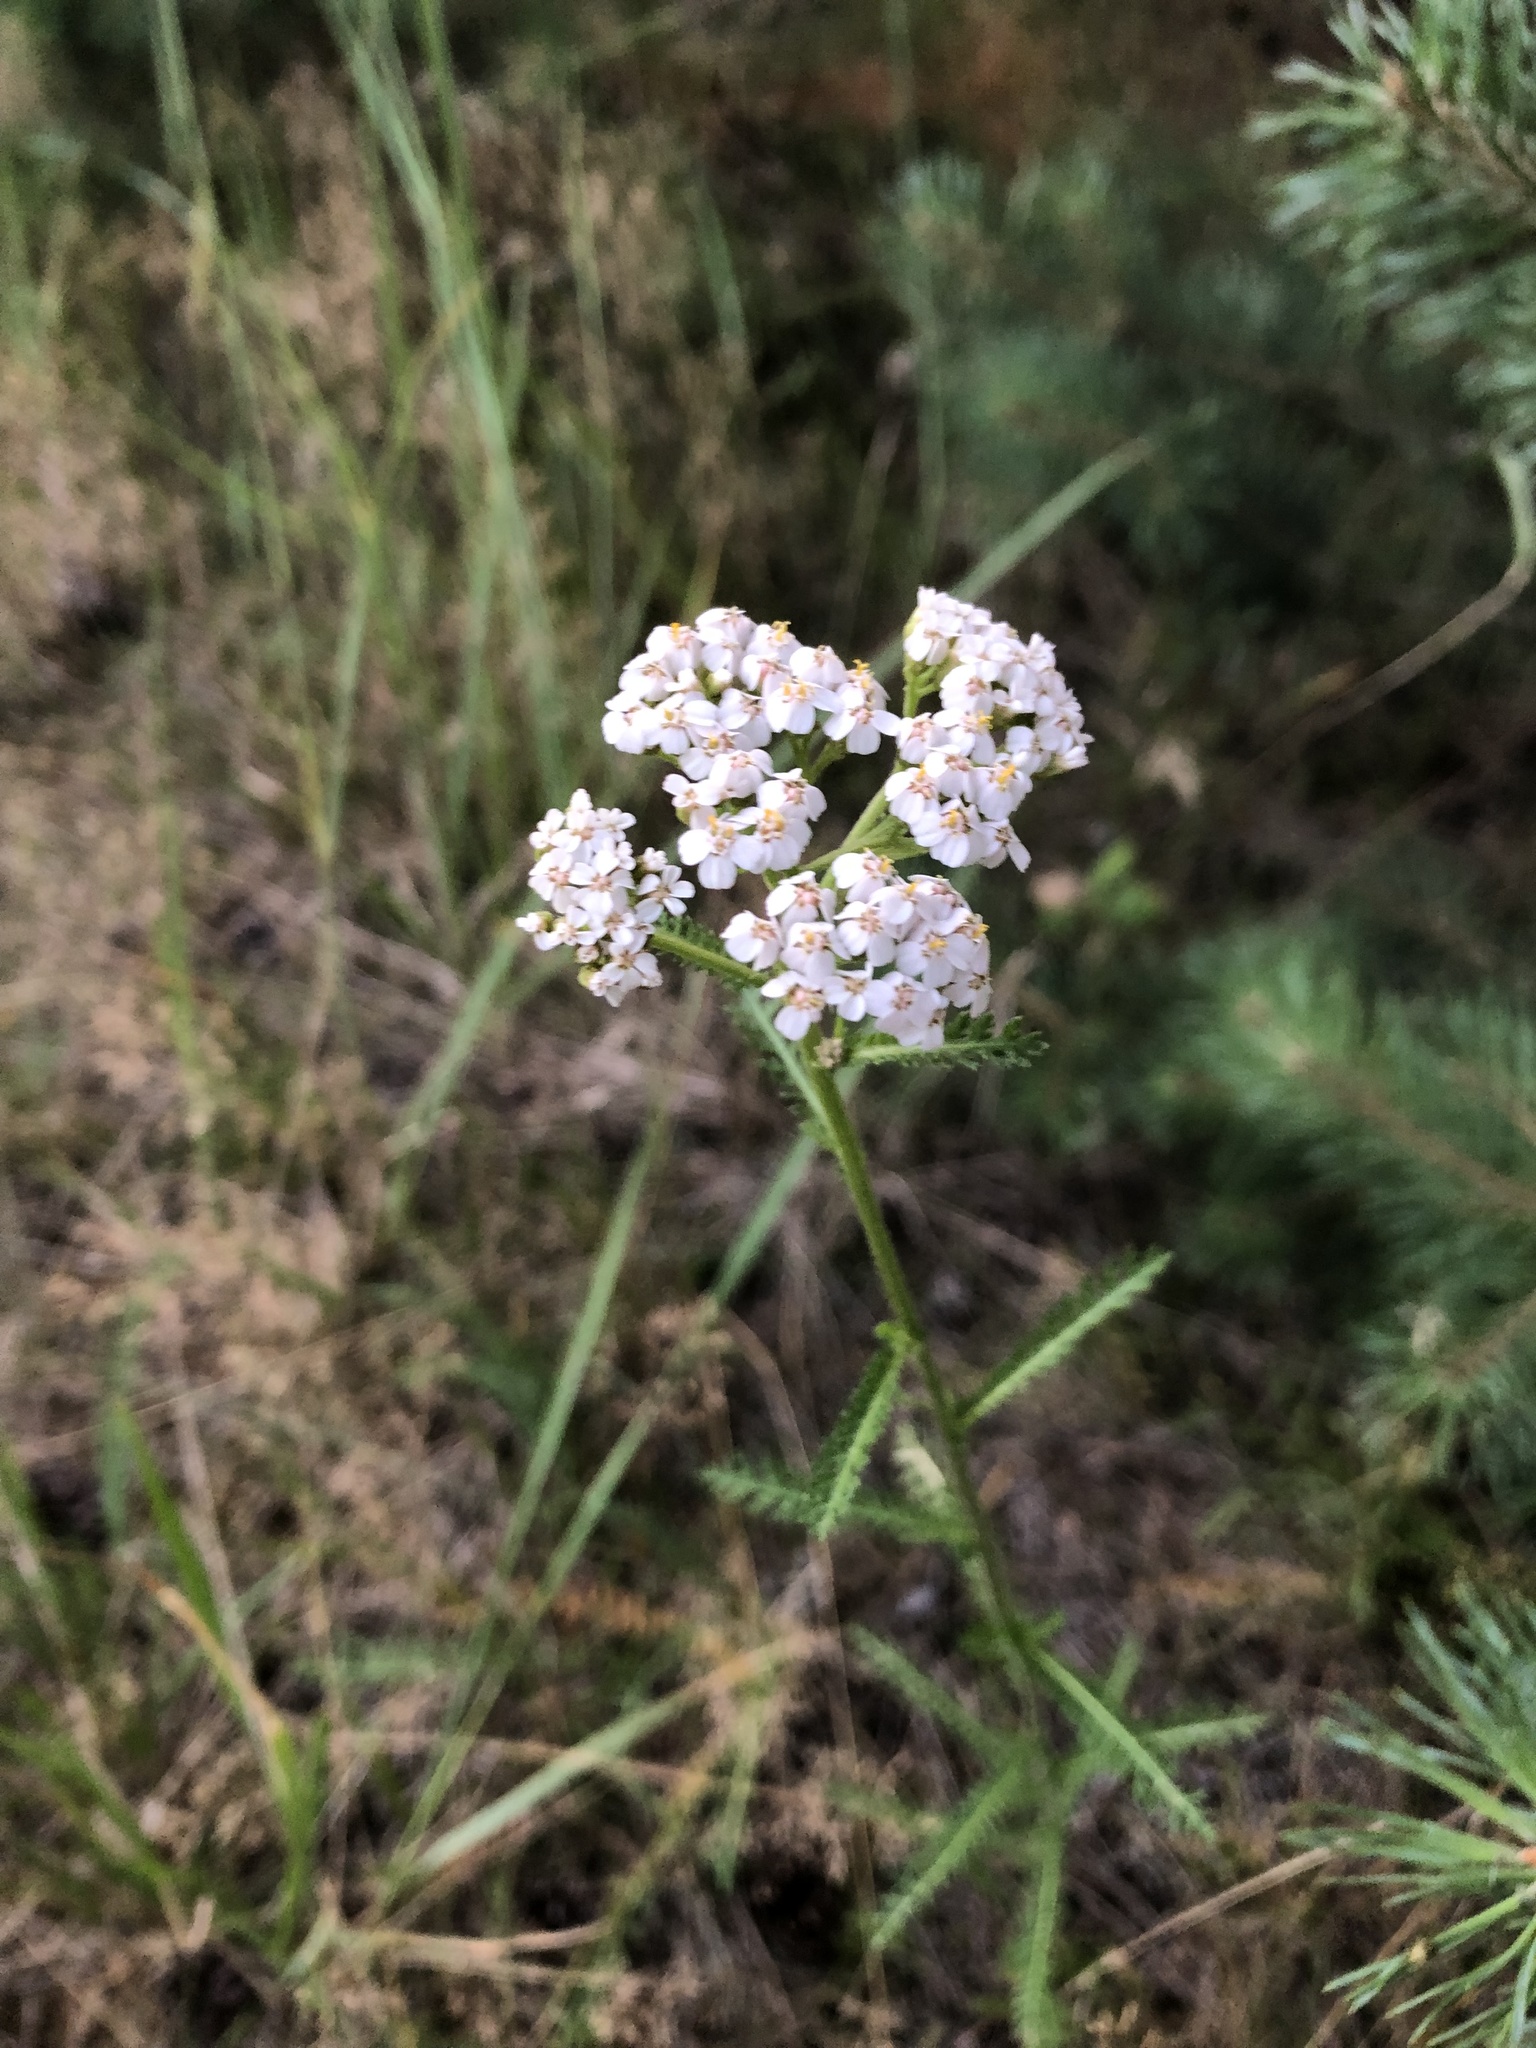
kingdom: Plantae
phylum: Tracheophyta
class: Magnoliopsida
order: Asterales
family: Asteraceae
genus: Achillea
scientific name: Achillea millefolium
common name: Yarrow
